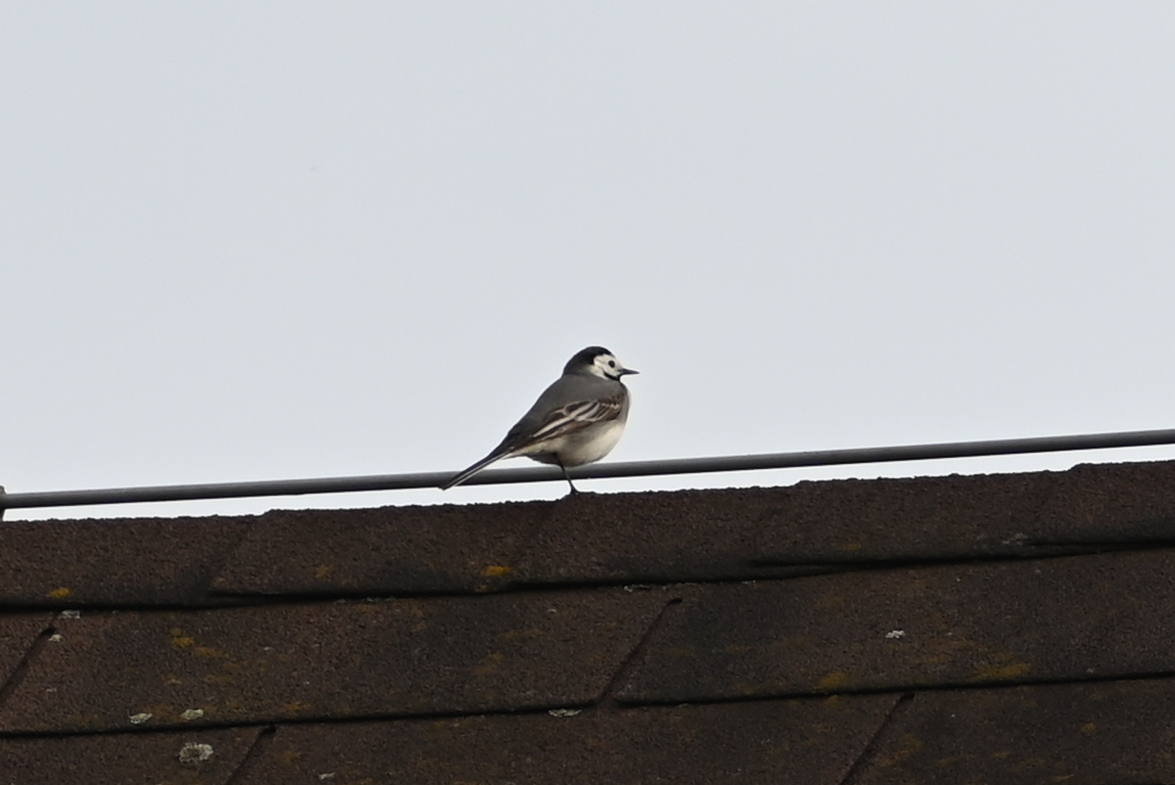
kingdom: Animalia
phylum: Chordata
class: Aves
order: Passeriformes
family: Motacillidae
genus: Motacilla
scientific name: Motacilla alba
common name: White wagtail
